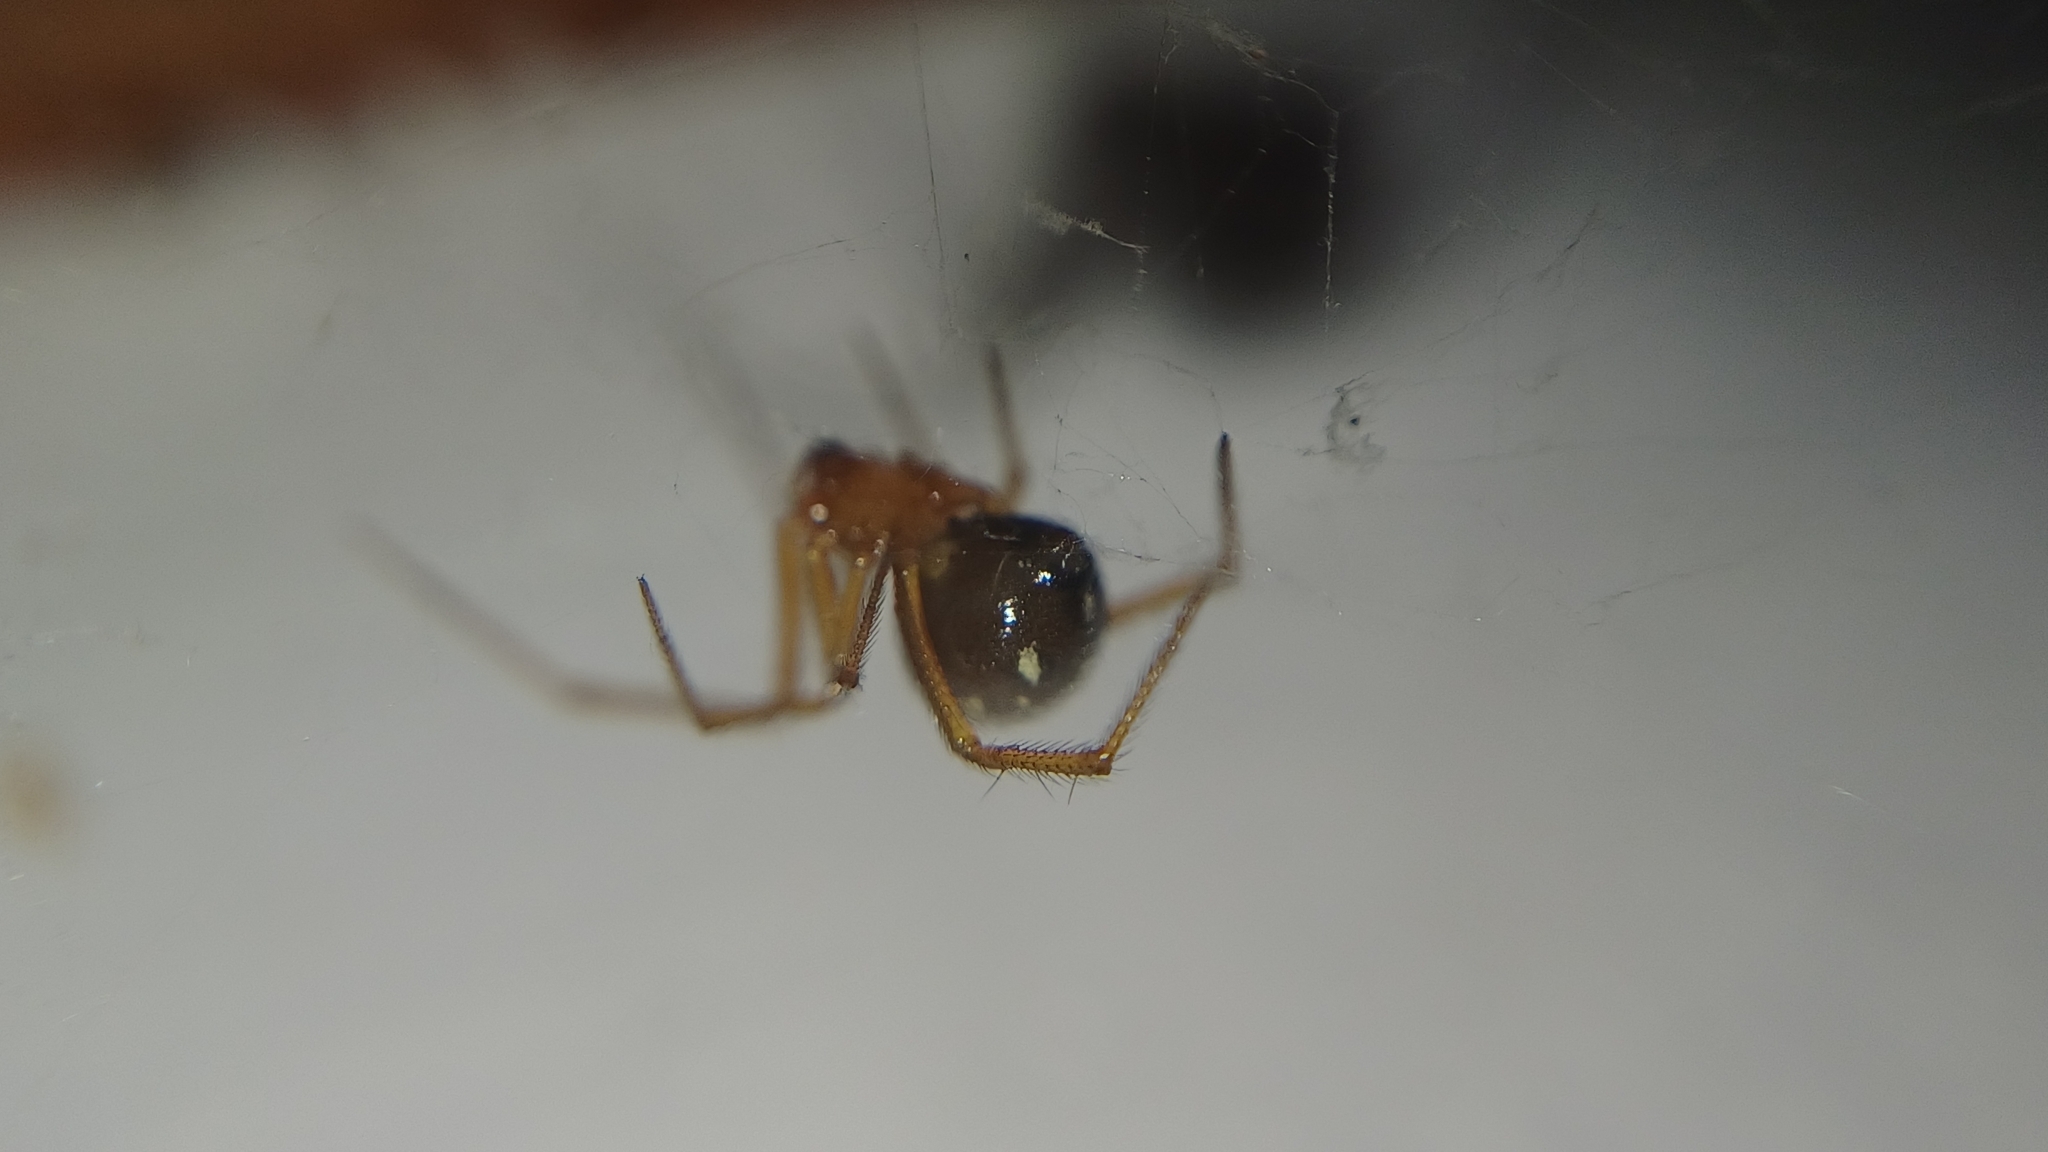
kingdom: Animalia
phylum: Arthropoda
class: Arachnida
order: Araneae
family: Theridiidae
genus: Nesticodes
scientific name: Nesticodes rufipes
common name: Cobweb spiders
